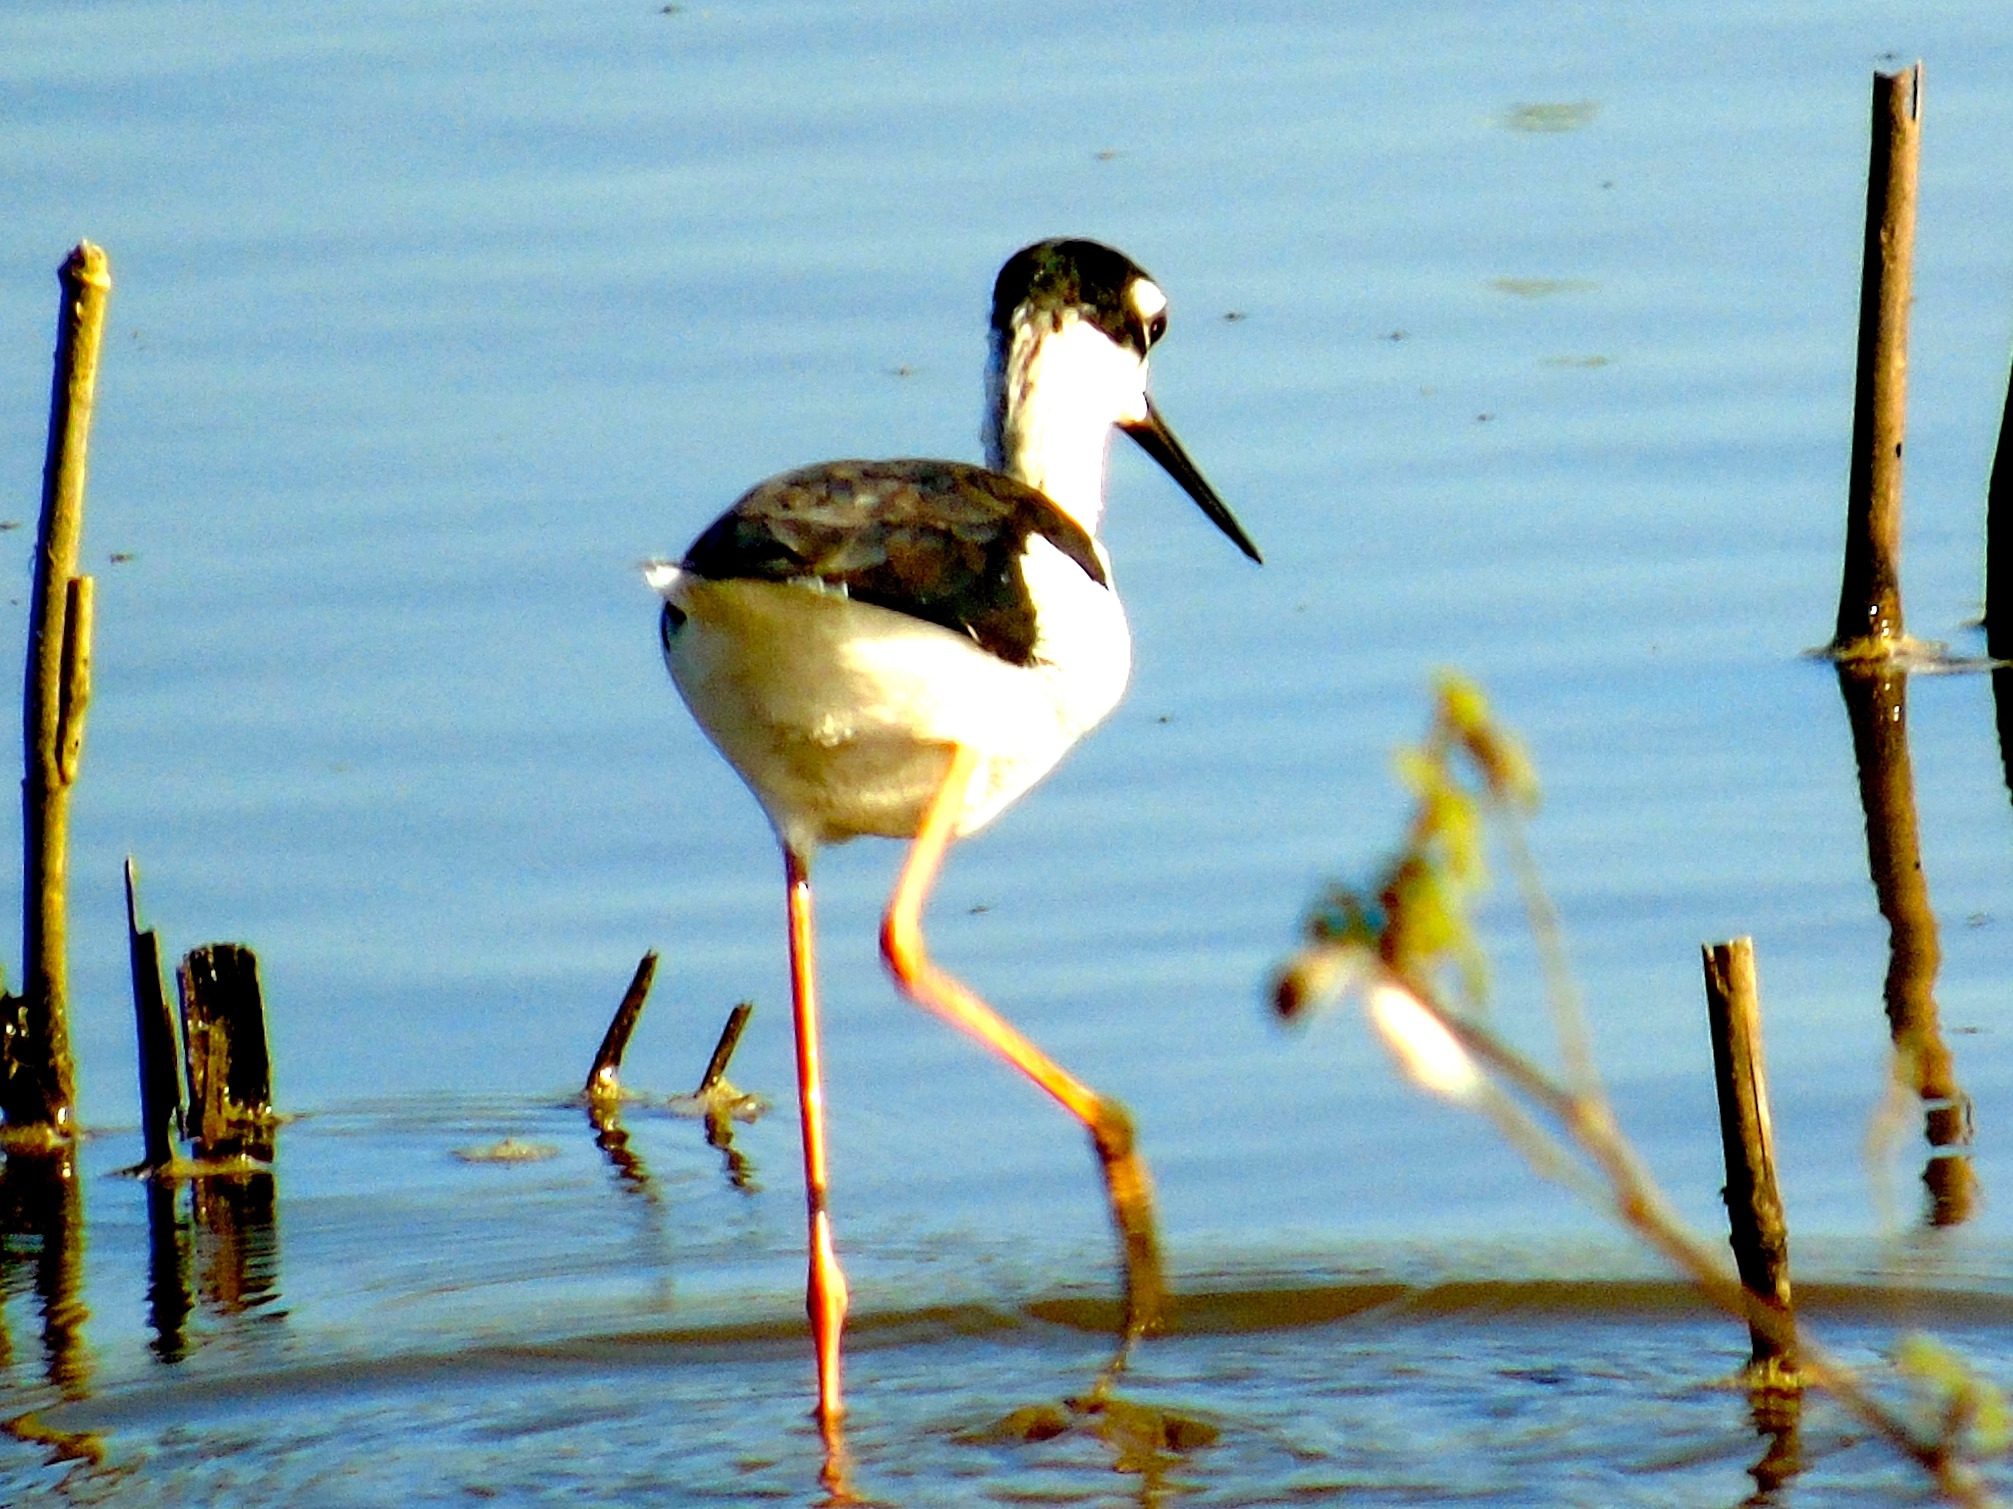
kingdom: Animalia
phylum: Chordata
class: Aves
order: Charadriiformes
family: Recurvirostridae
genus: Himantopus
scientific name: Himantopus mexicanus
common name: Black-necked stilt
